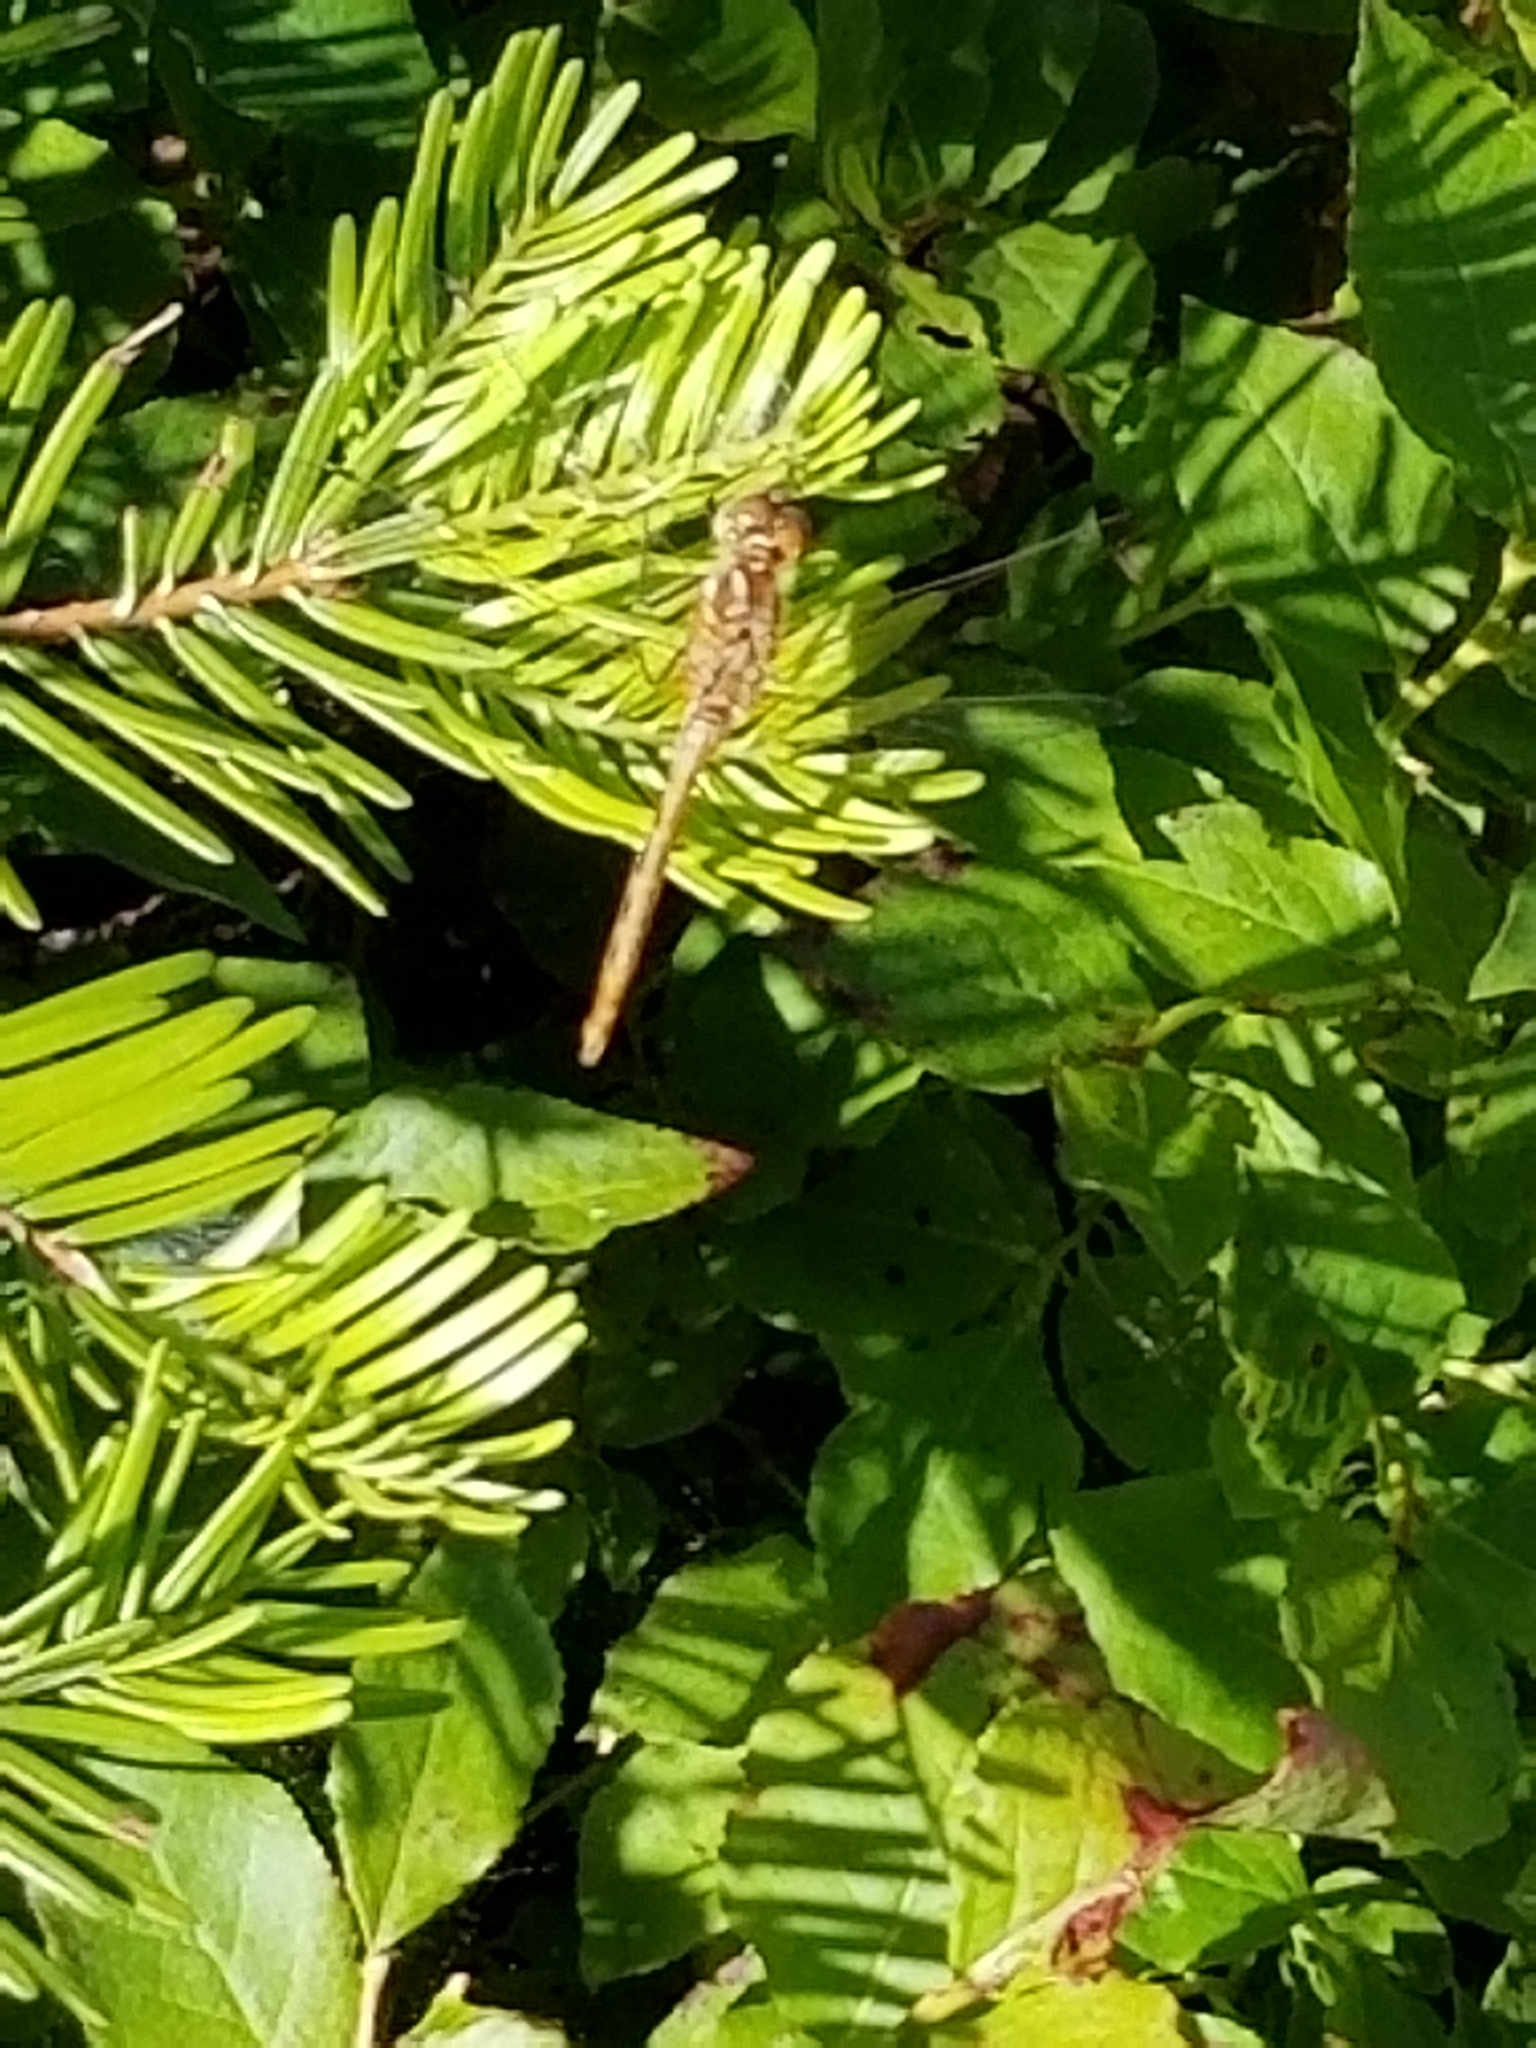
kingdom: Animalia
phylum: Arthropoda
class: Insecta
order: Odonata
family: Libellulidae
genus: Sympetrum
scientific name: Sympetrum pallipes
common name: Striped meadowhawk
